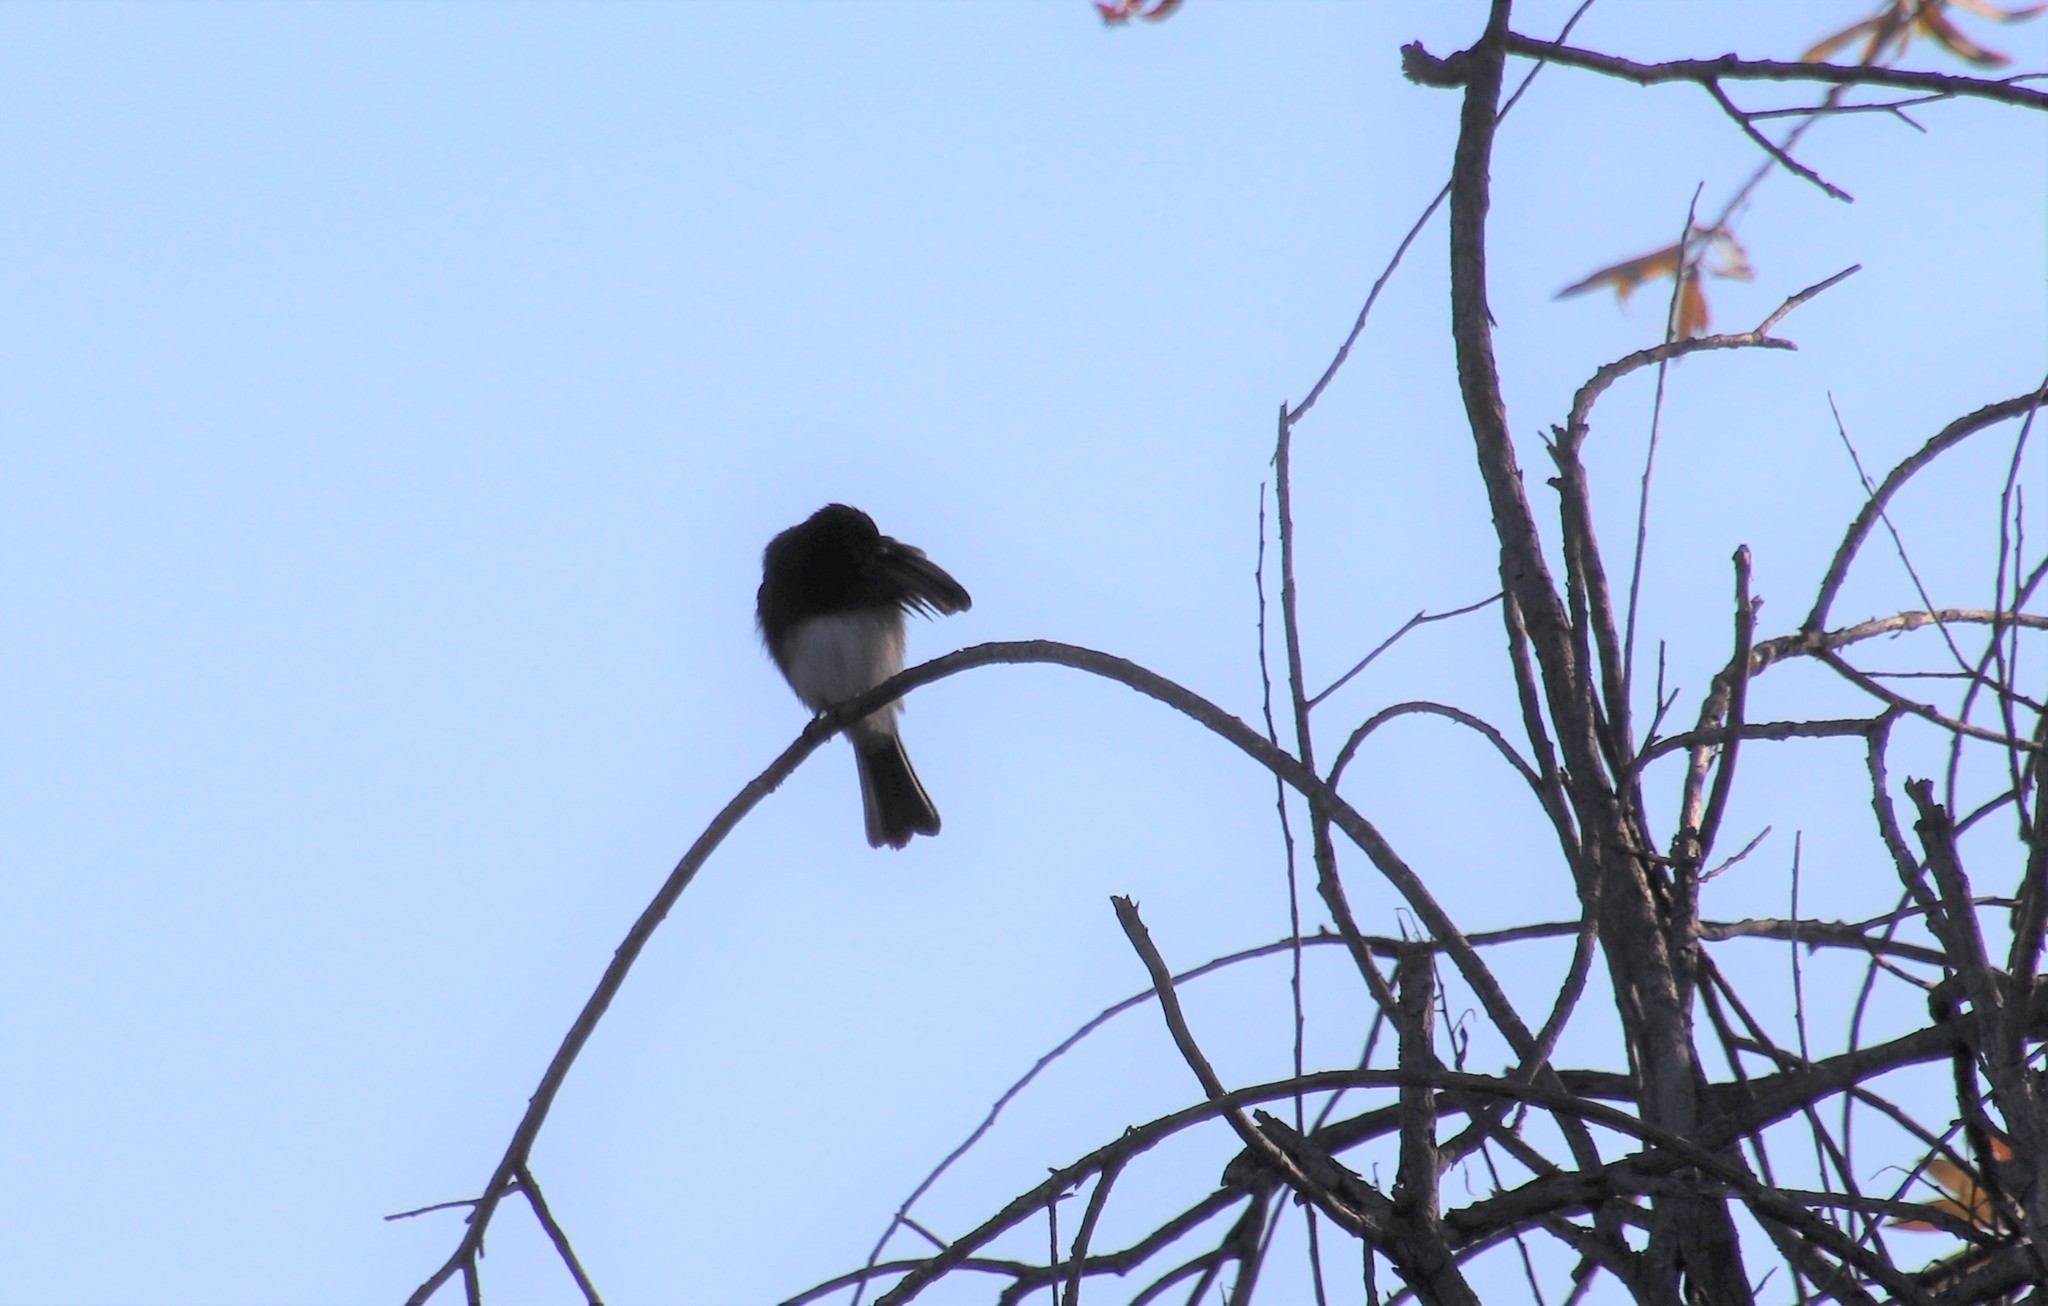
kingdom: Animalia
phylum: Chordata
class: Aves
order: Passeriformes
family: Tyrannidae
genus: Sayornis
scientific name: Sayornis nigricans
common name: Black phoebe
